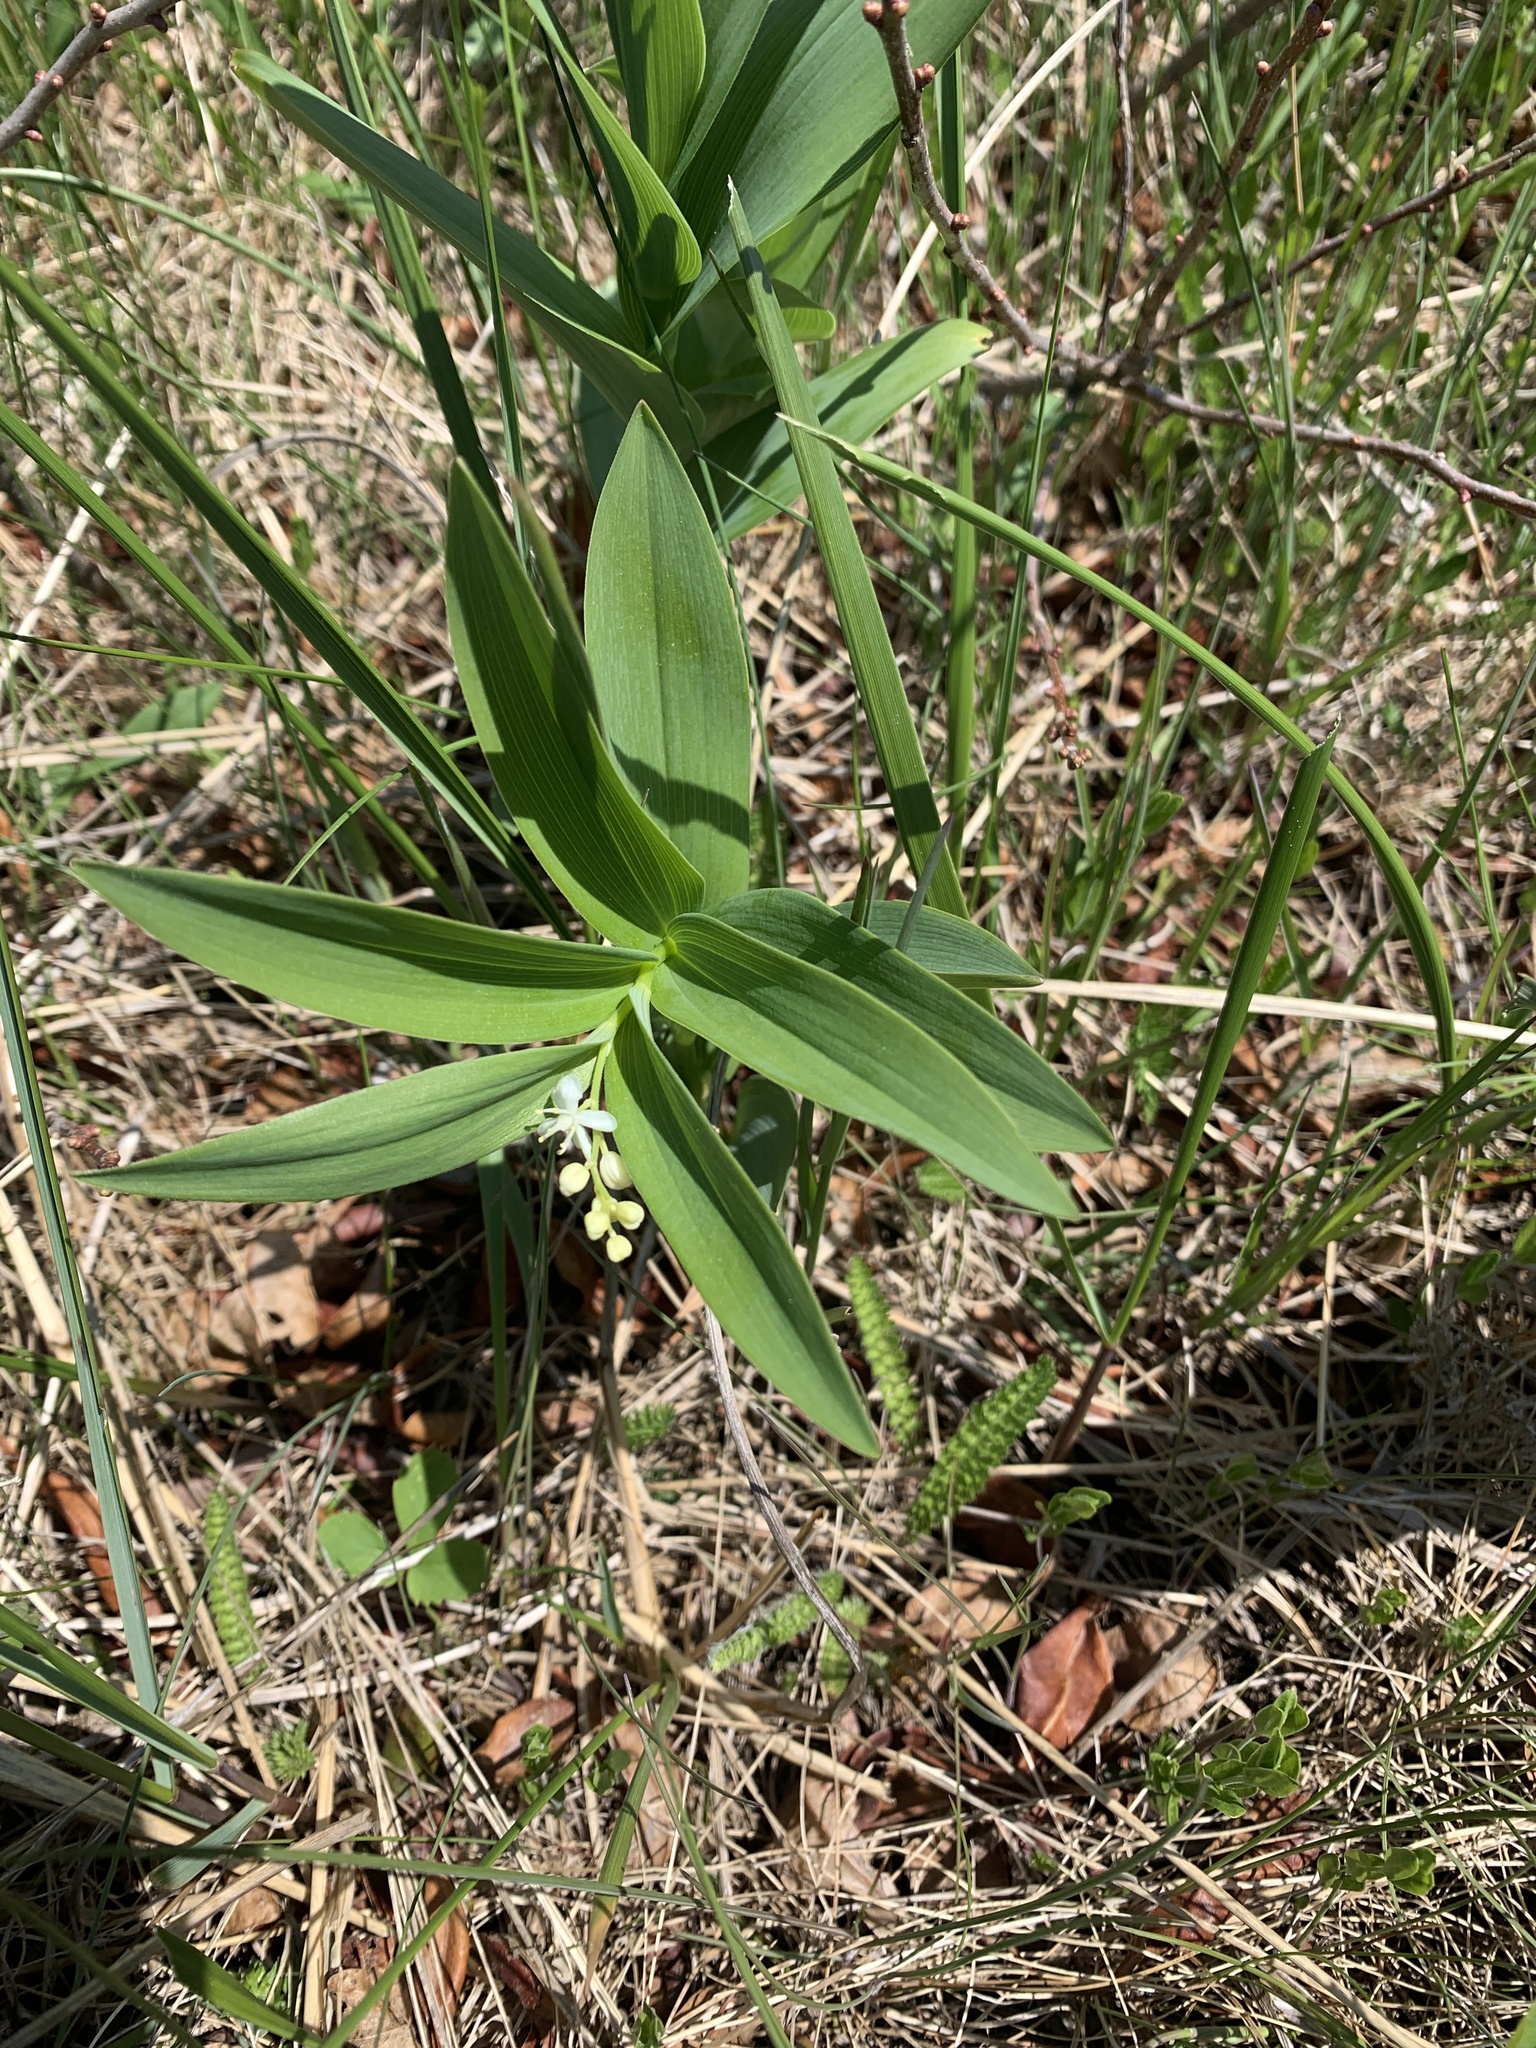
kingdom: Plantae
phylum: Tracheophyta
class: Liliopsida
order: Asparagales
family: Asparagaceae
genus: Maianthemum
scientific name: Maianthemum stellatum
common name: Little false solomon's seal
